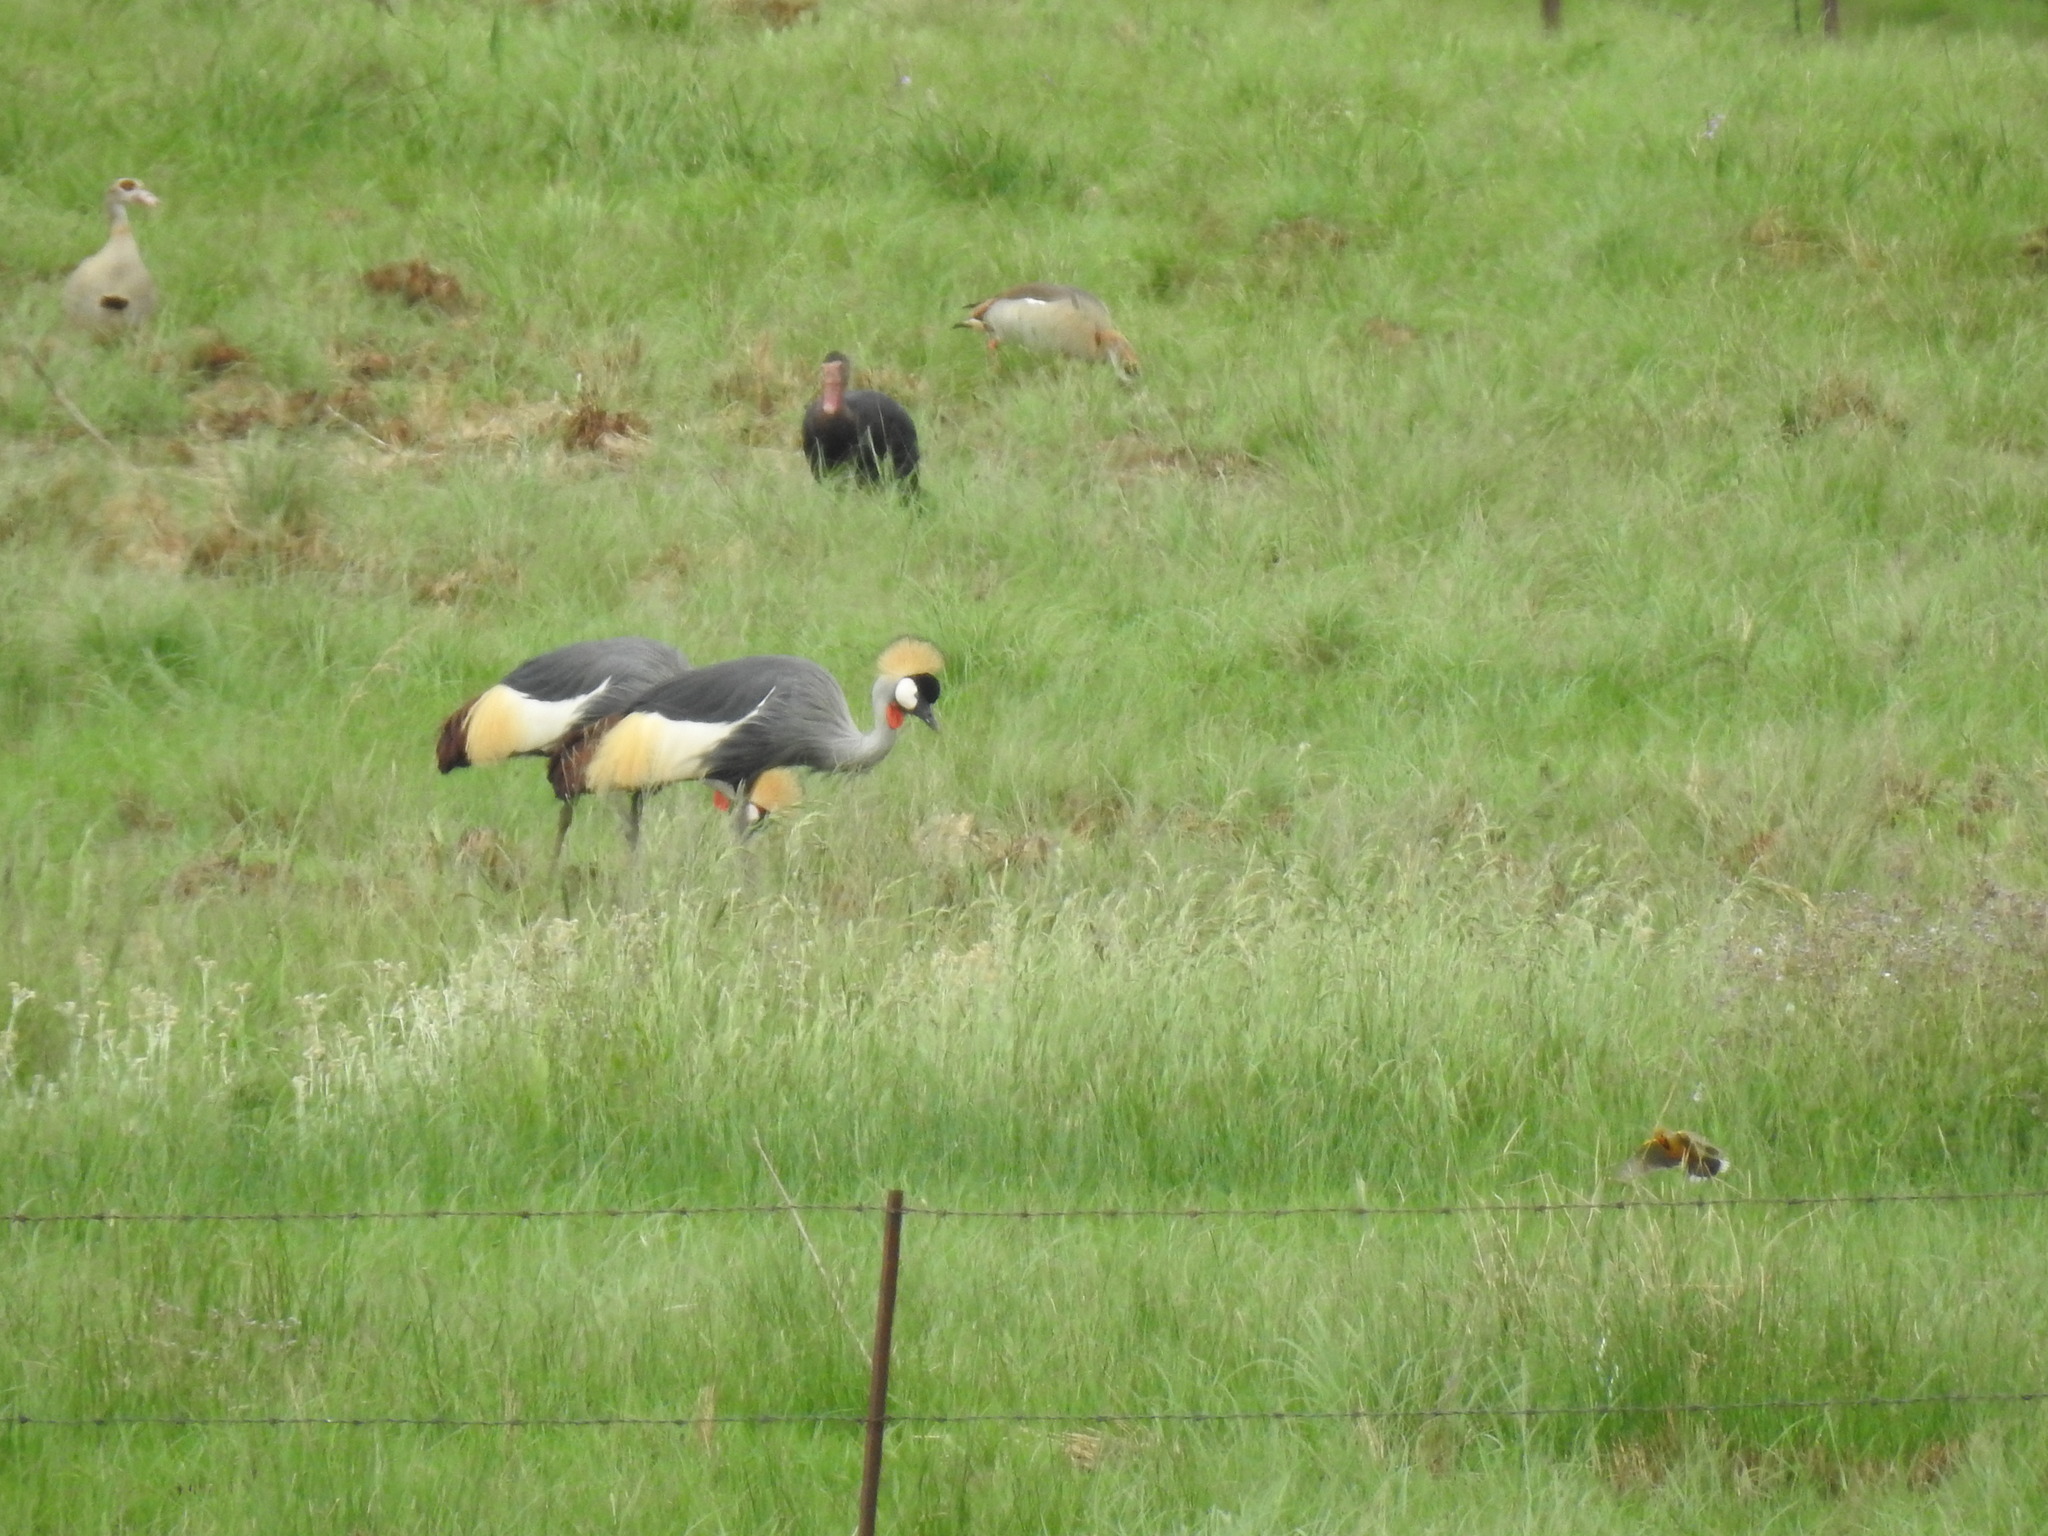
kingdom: Animalia
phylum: Chordata
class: Aves
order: Gruiformes
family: Gruidae
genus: Balearica
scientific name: Balearica regulorum
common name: Grey crowned crane
